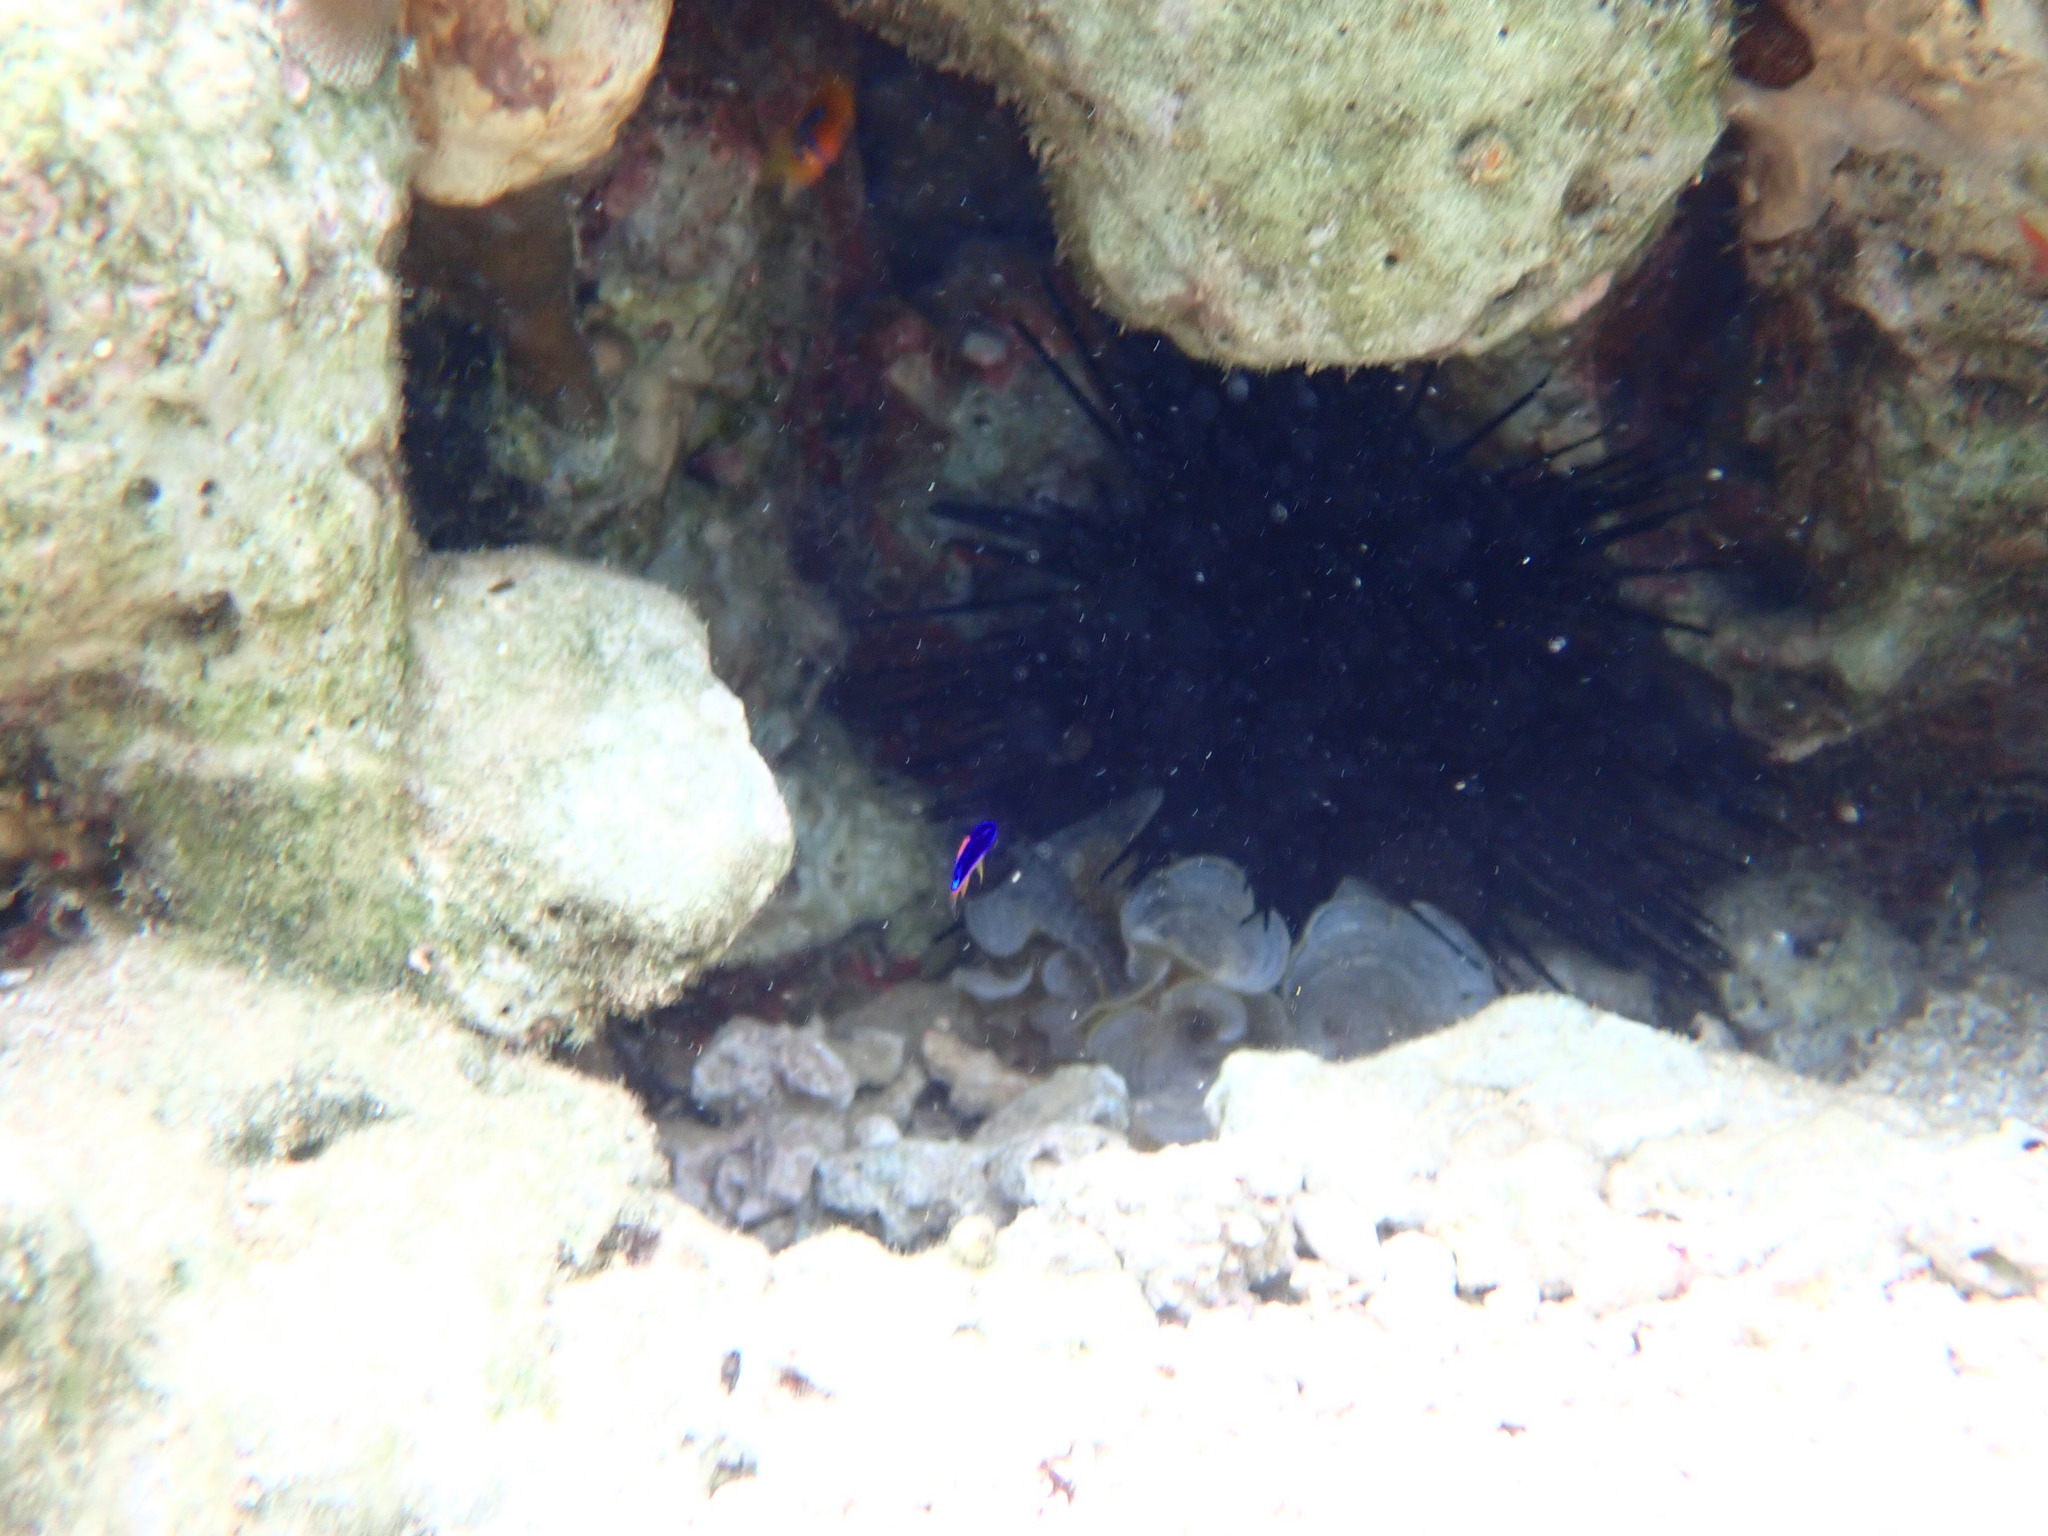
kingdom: Animalia
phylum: Chordata
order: Perciformes
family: Pomacentridae
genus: Chrysiptera
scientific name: Chrysiptera taupou
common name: Fiji damsel
